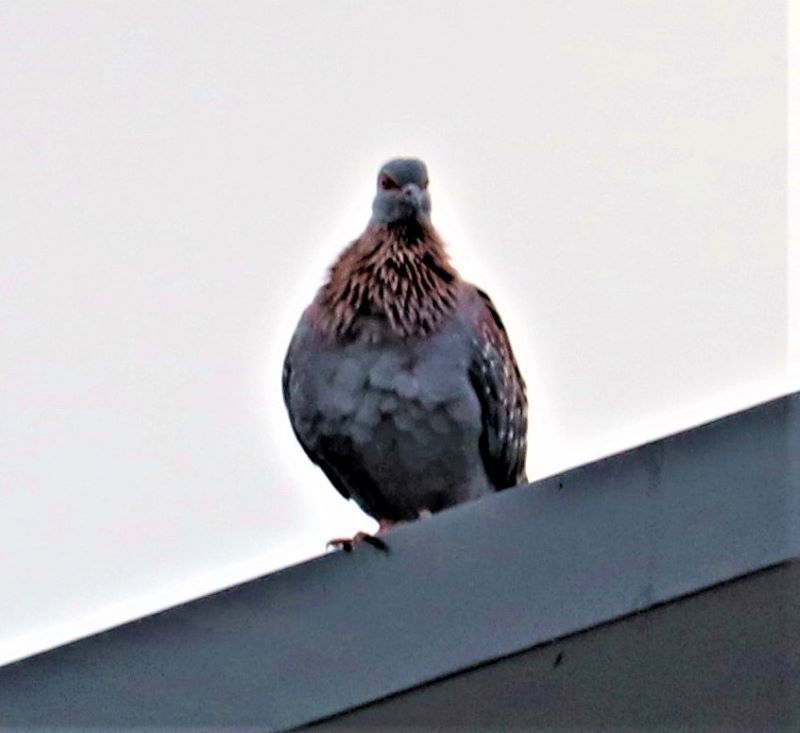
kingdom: Animalia
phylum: Chordata
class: Aves
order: Columbiformes
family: Columbidae
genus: Columba
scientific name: Columba guinea
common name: Speckled pigeon
